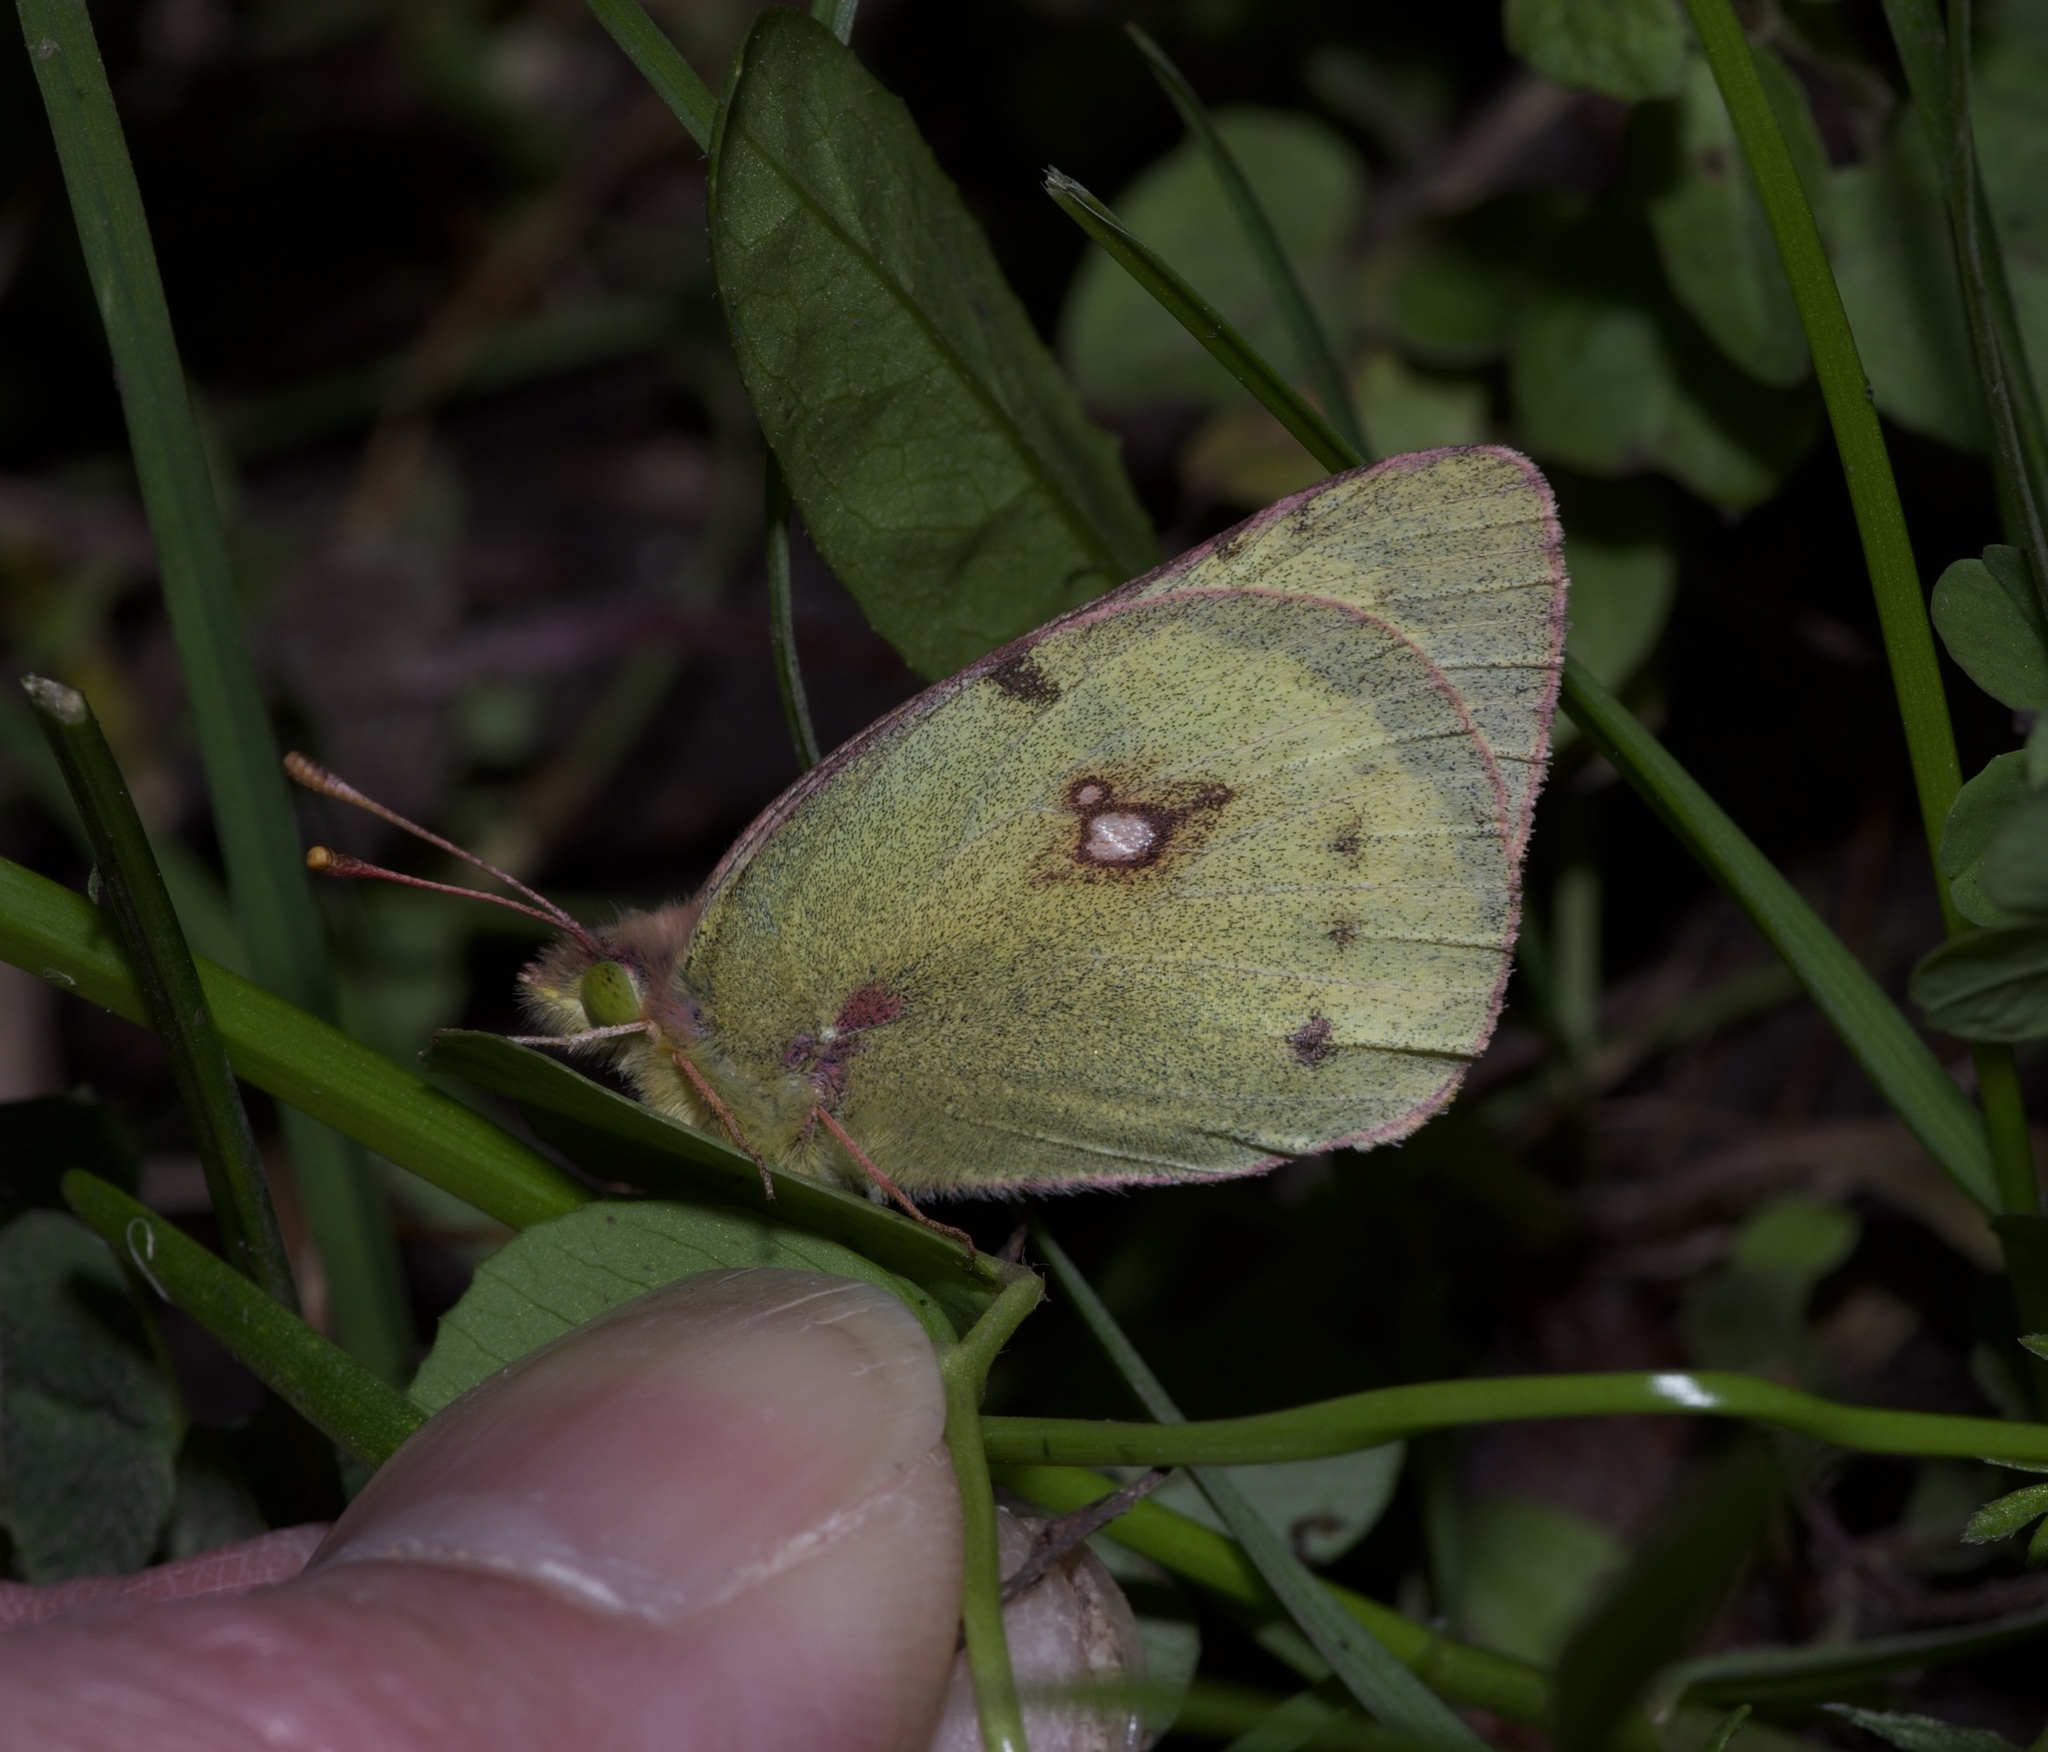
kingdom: Animalia
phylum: Arthropoda
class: Insecta
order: Lepidoptera
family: Pieridae
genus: Colias
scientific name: Colias eurytheme
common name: Alfalfa butterfly
